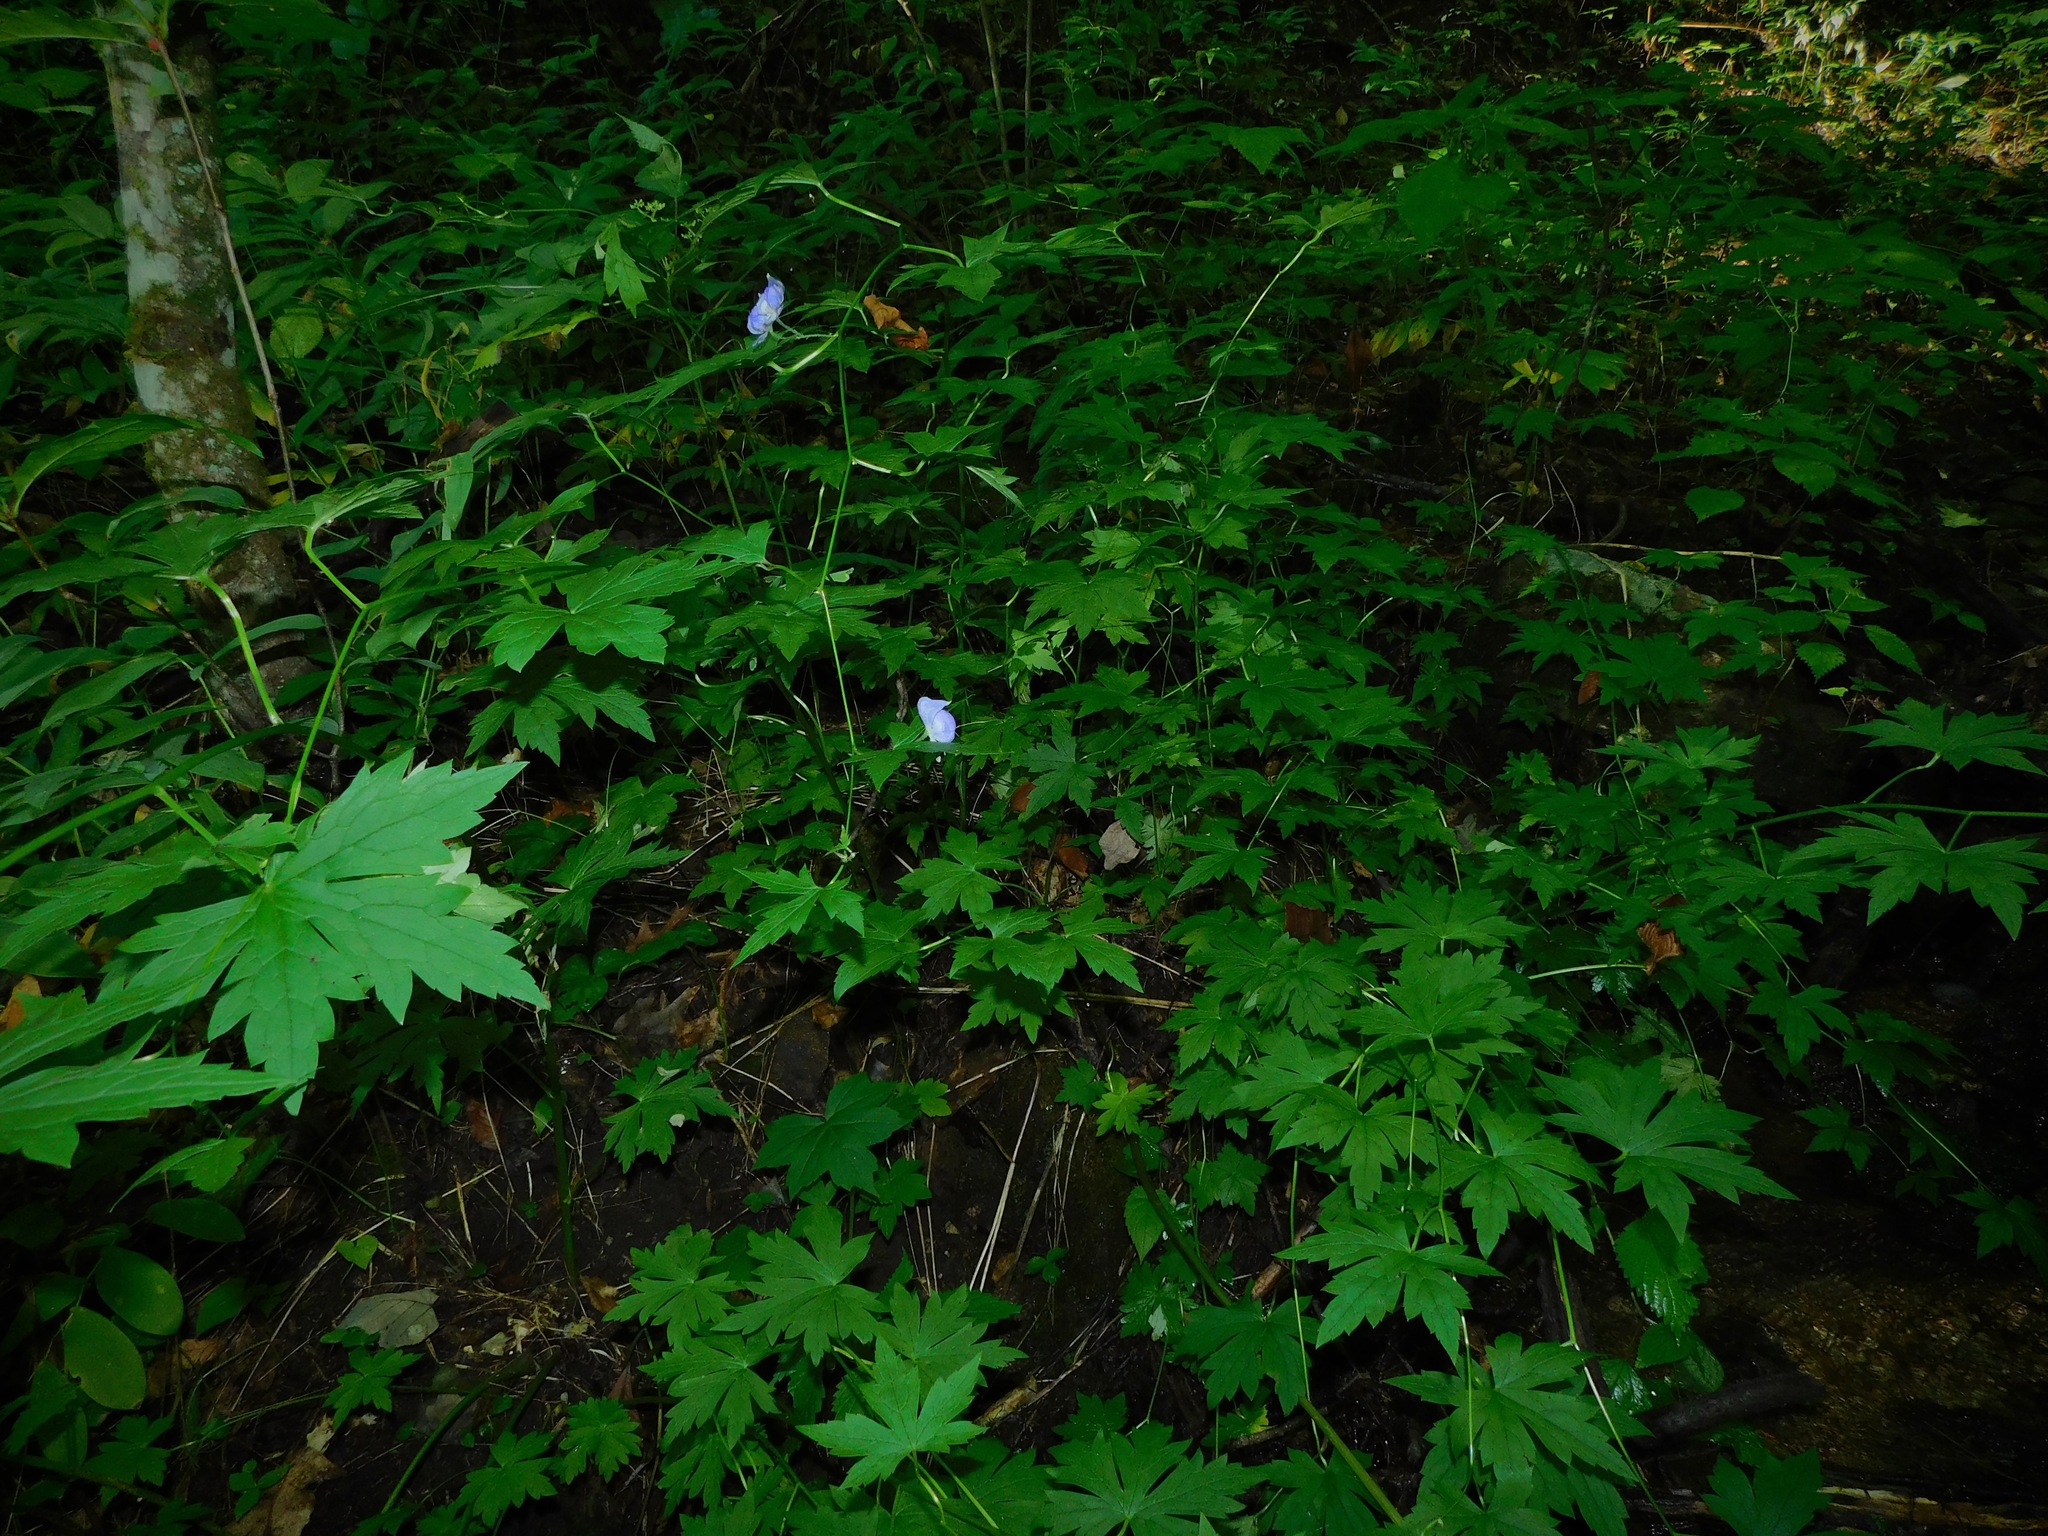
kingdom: Plantae
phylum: Tracheophyta
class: Magnoliopsida
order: Ranunculales
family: Ranunculaceae
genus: Aconitum
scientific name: Aconitum uncinatum
